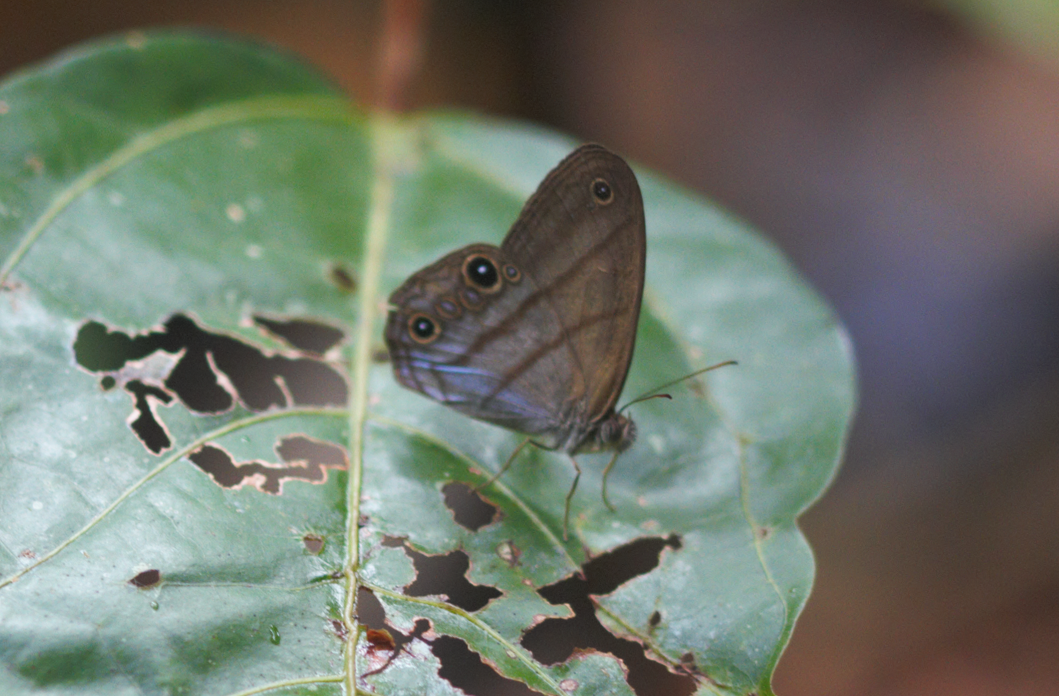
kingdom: Animalia
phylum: Arthropoda
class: Insecta
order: Lepidoptera
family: Nymphalidae
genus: Amiga
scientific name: Amiga arnaca
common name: Blue-topped satyr
